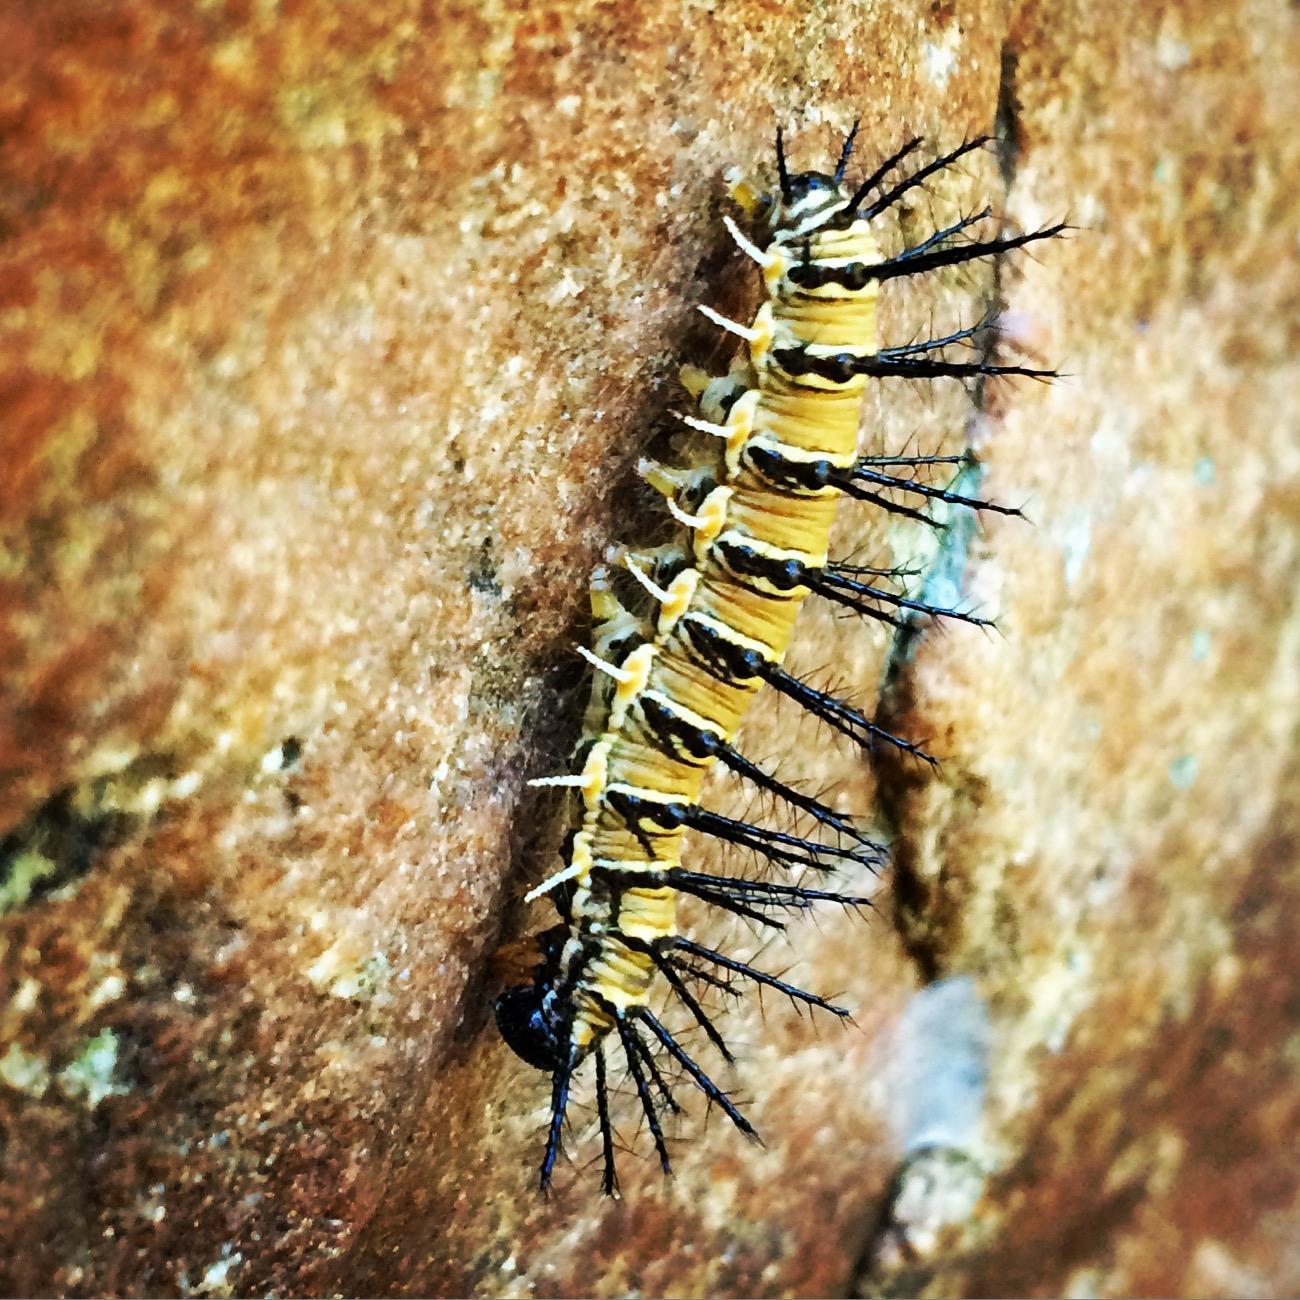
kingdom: Animalia
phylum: Arthropoda
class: Insecta
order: Lepidoptera
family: Nymphalidae
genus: Acraea
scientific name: Acraea esebria
